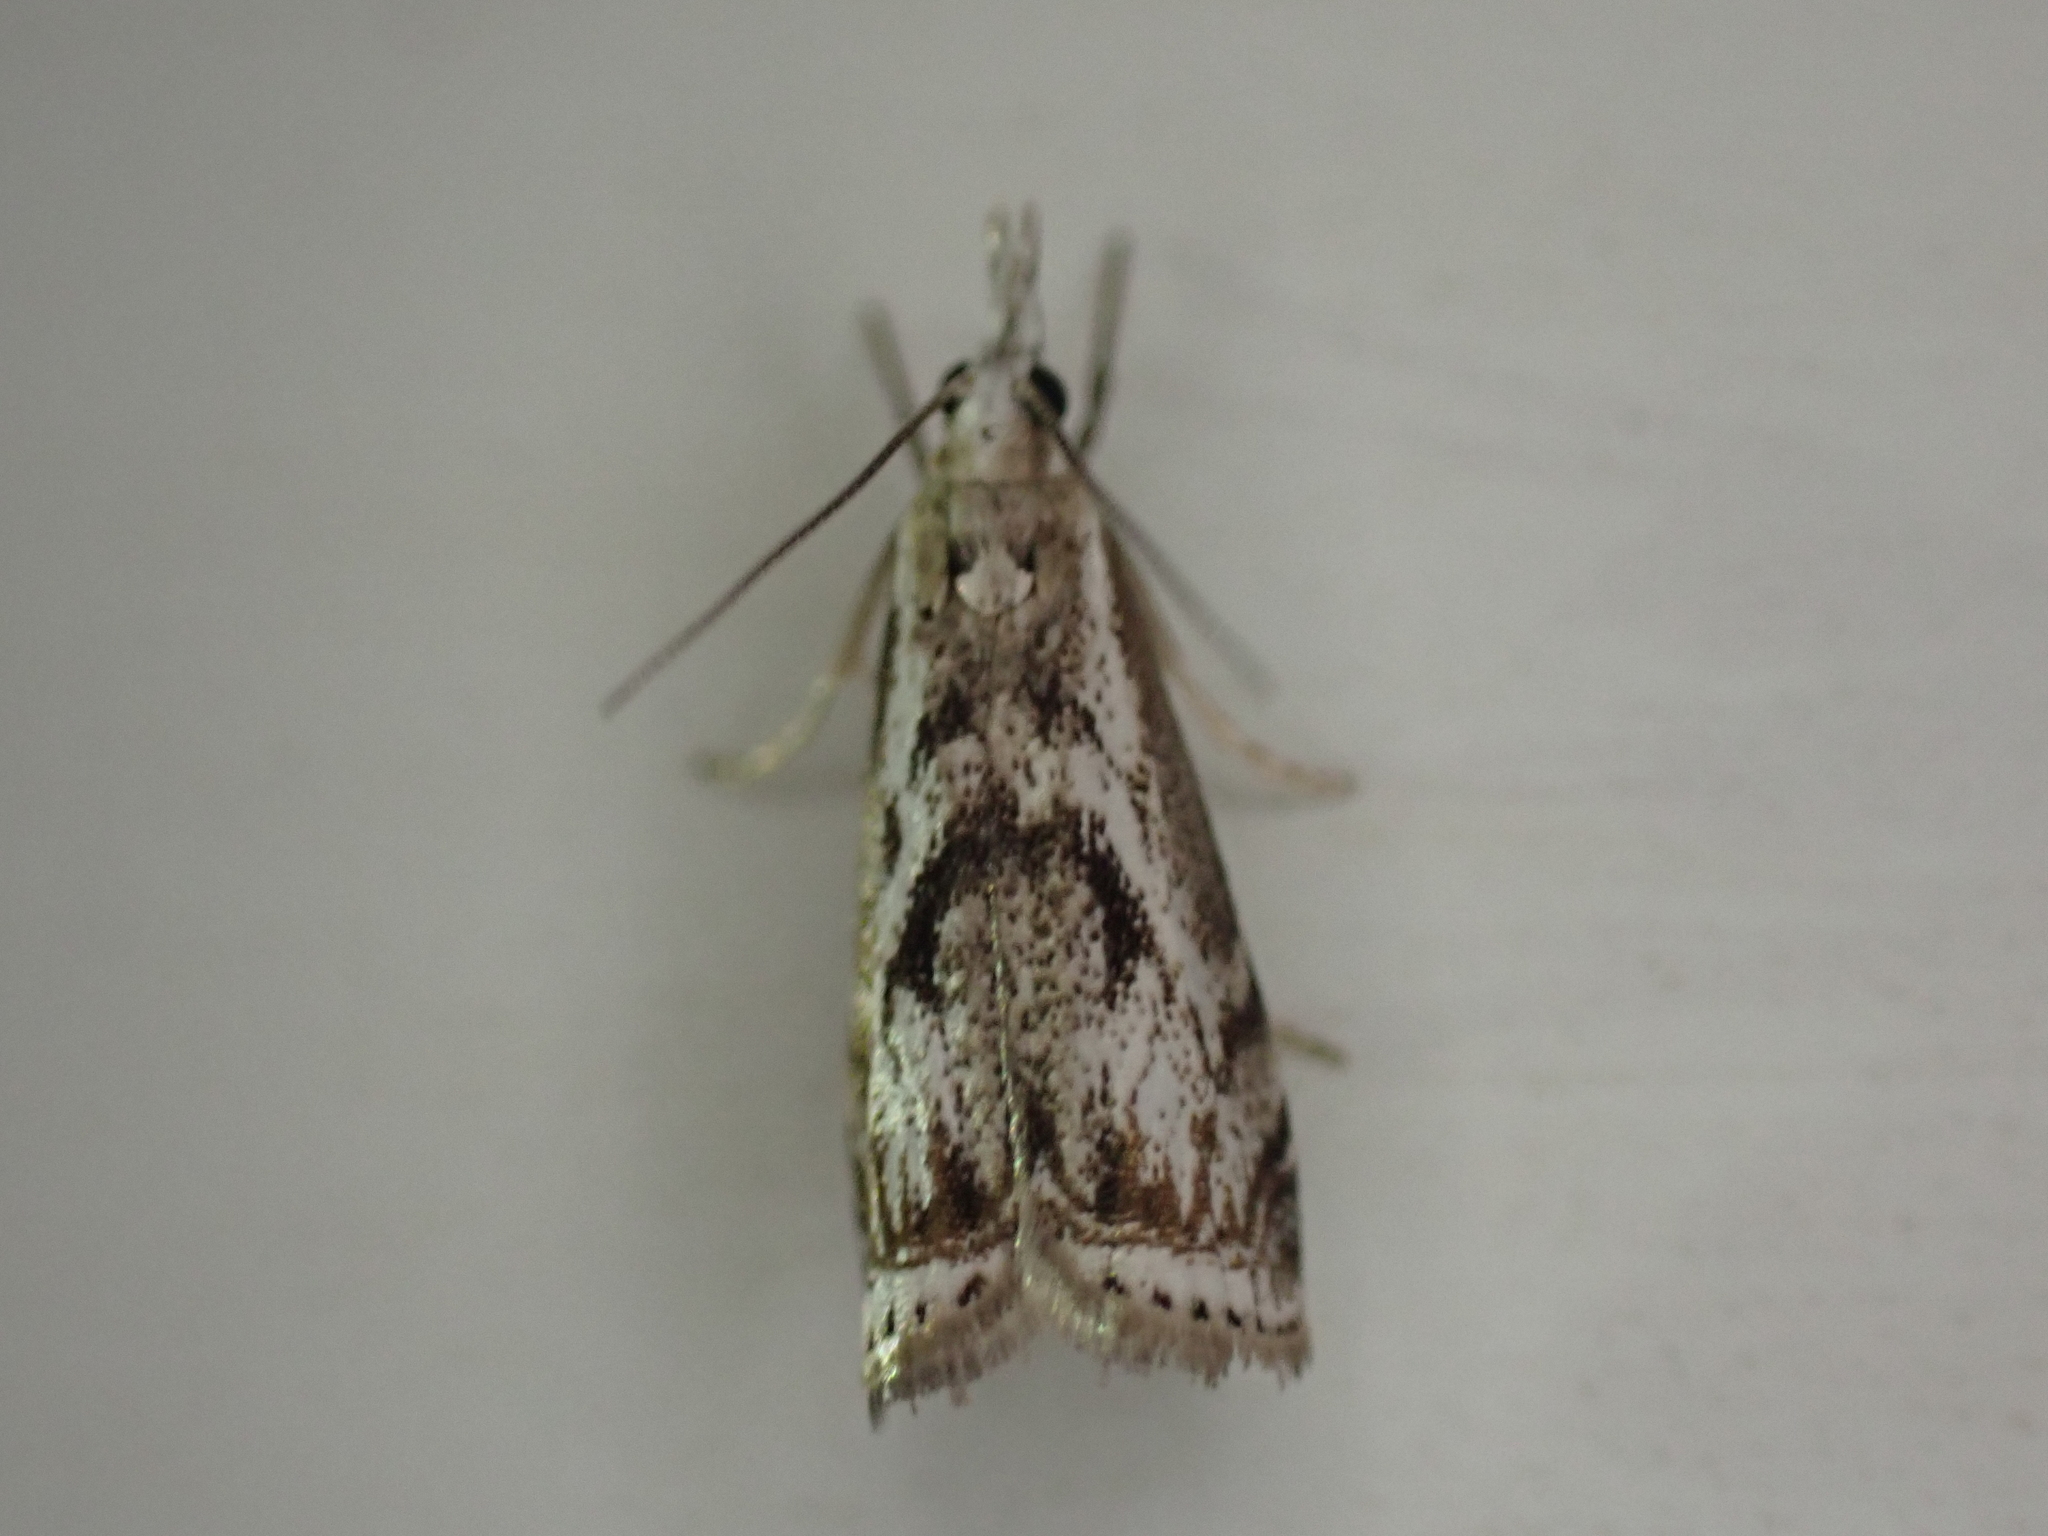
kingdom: Animalia
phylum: Arthropoda
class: Insecta
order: Lepidoptera
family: Crambidae
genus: Microcrambus
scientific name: Microcrambus elegans
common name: Elegant grass-veneer
